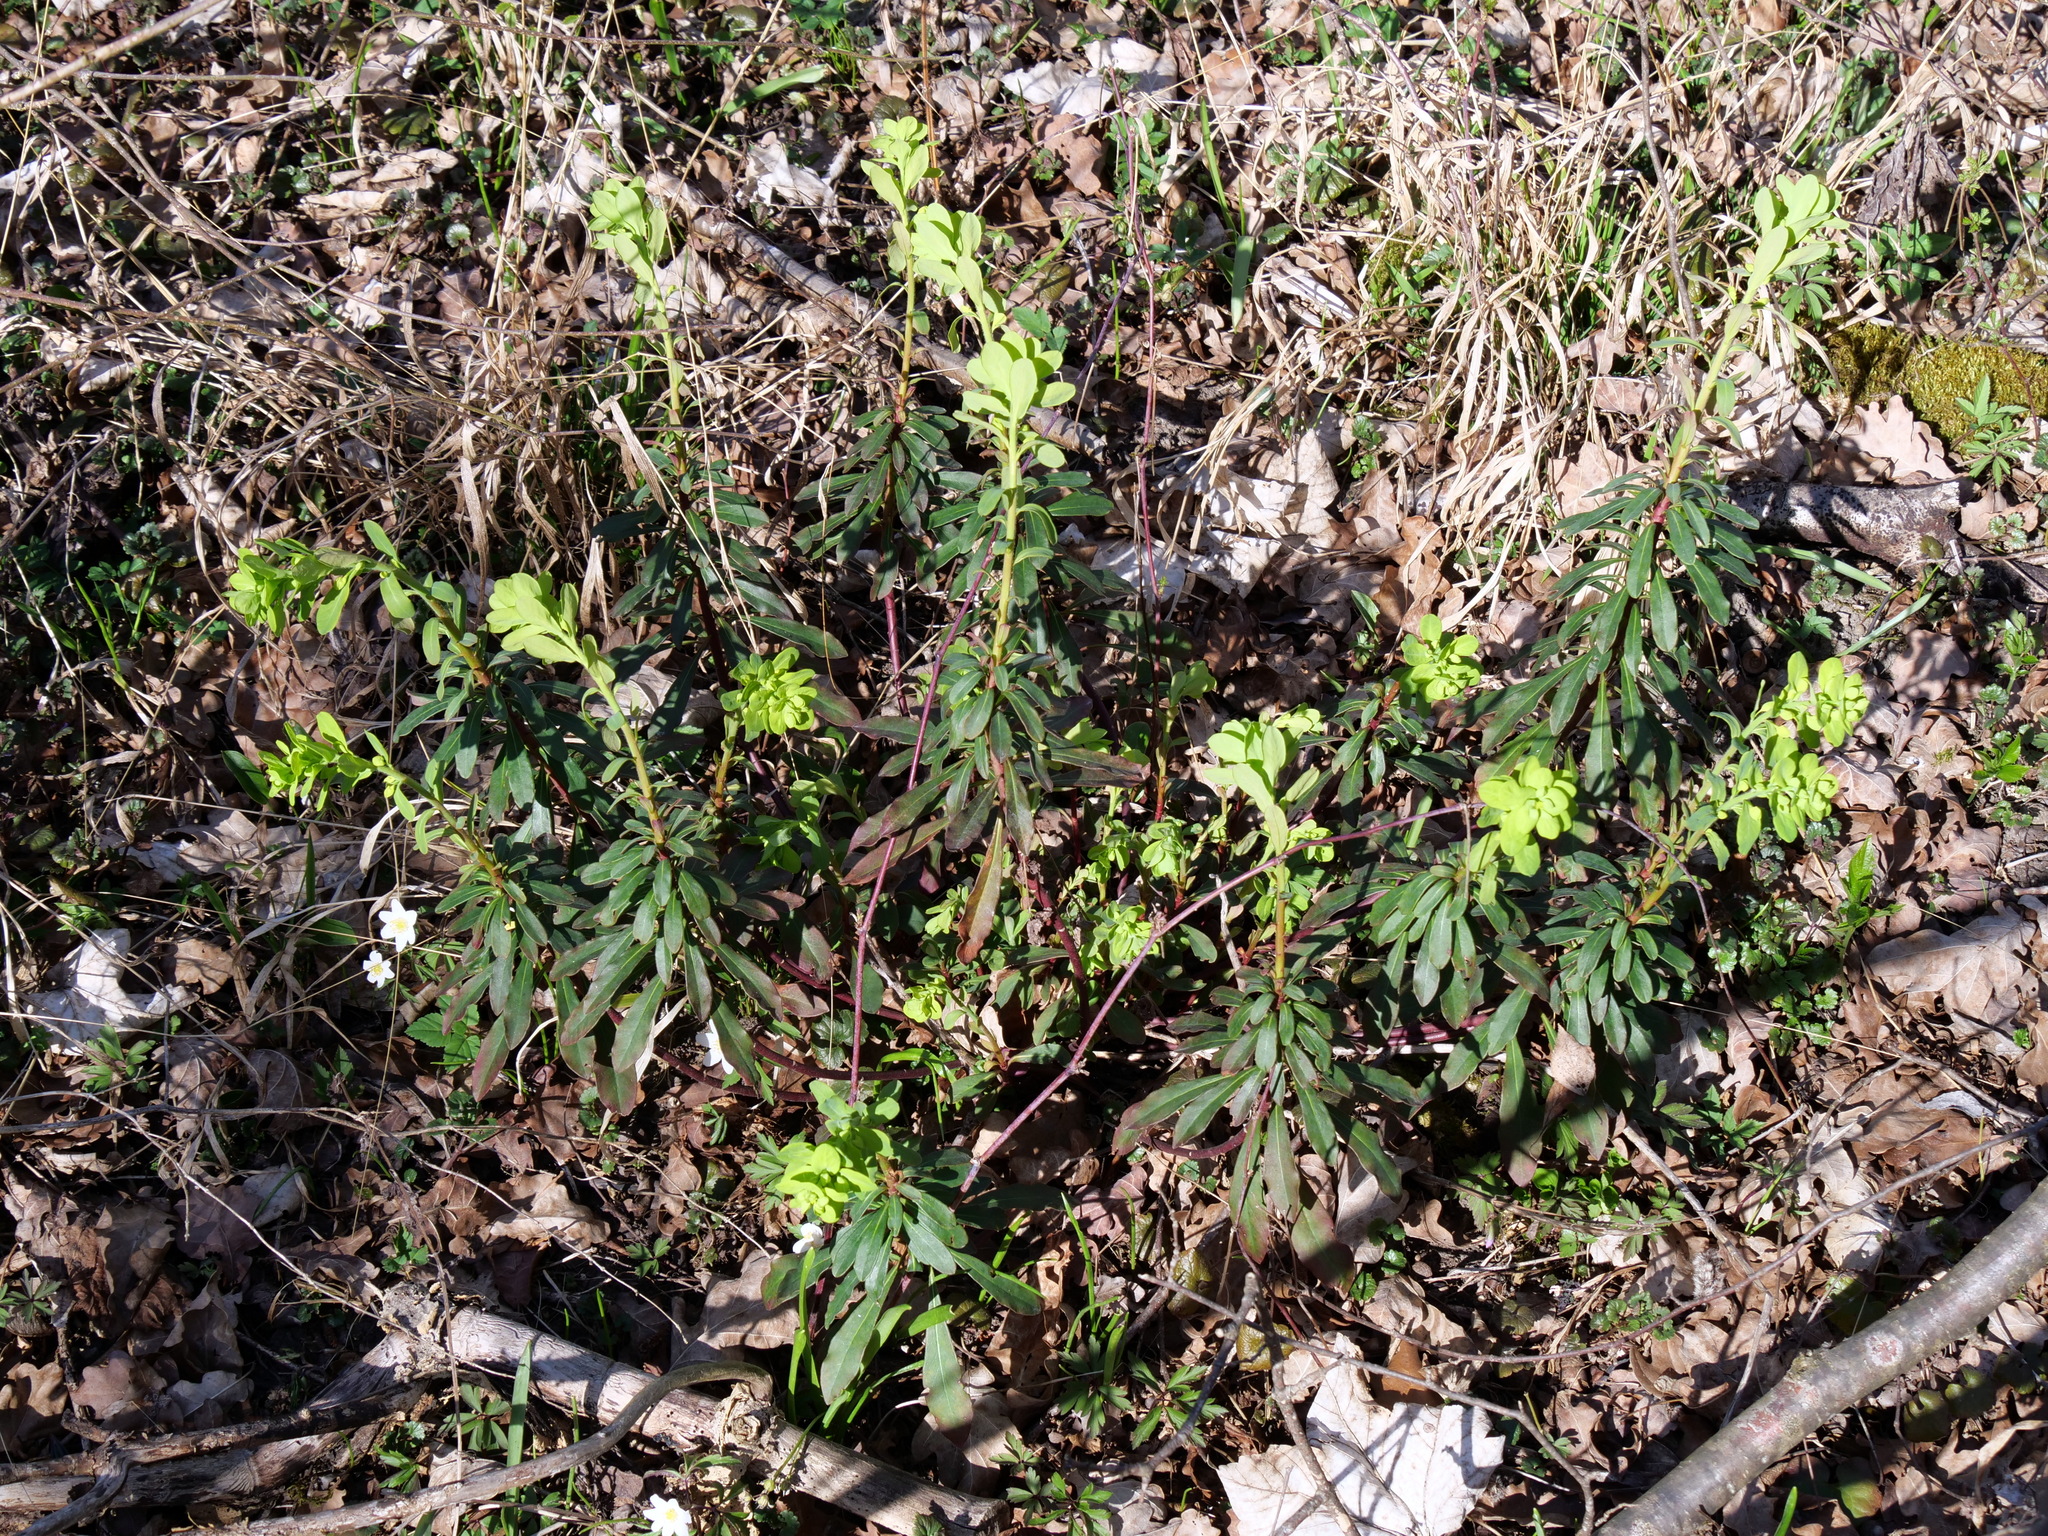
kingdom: Plantae
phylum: Tracheophyta
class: Magnoliopsida
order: Malpighiales
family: Euphorbiaceae
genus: Euphorbia
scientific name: Euphorbia amygdaloides
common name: Wood spurge
